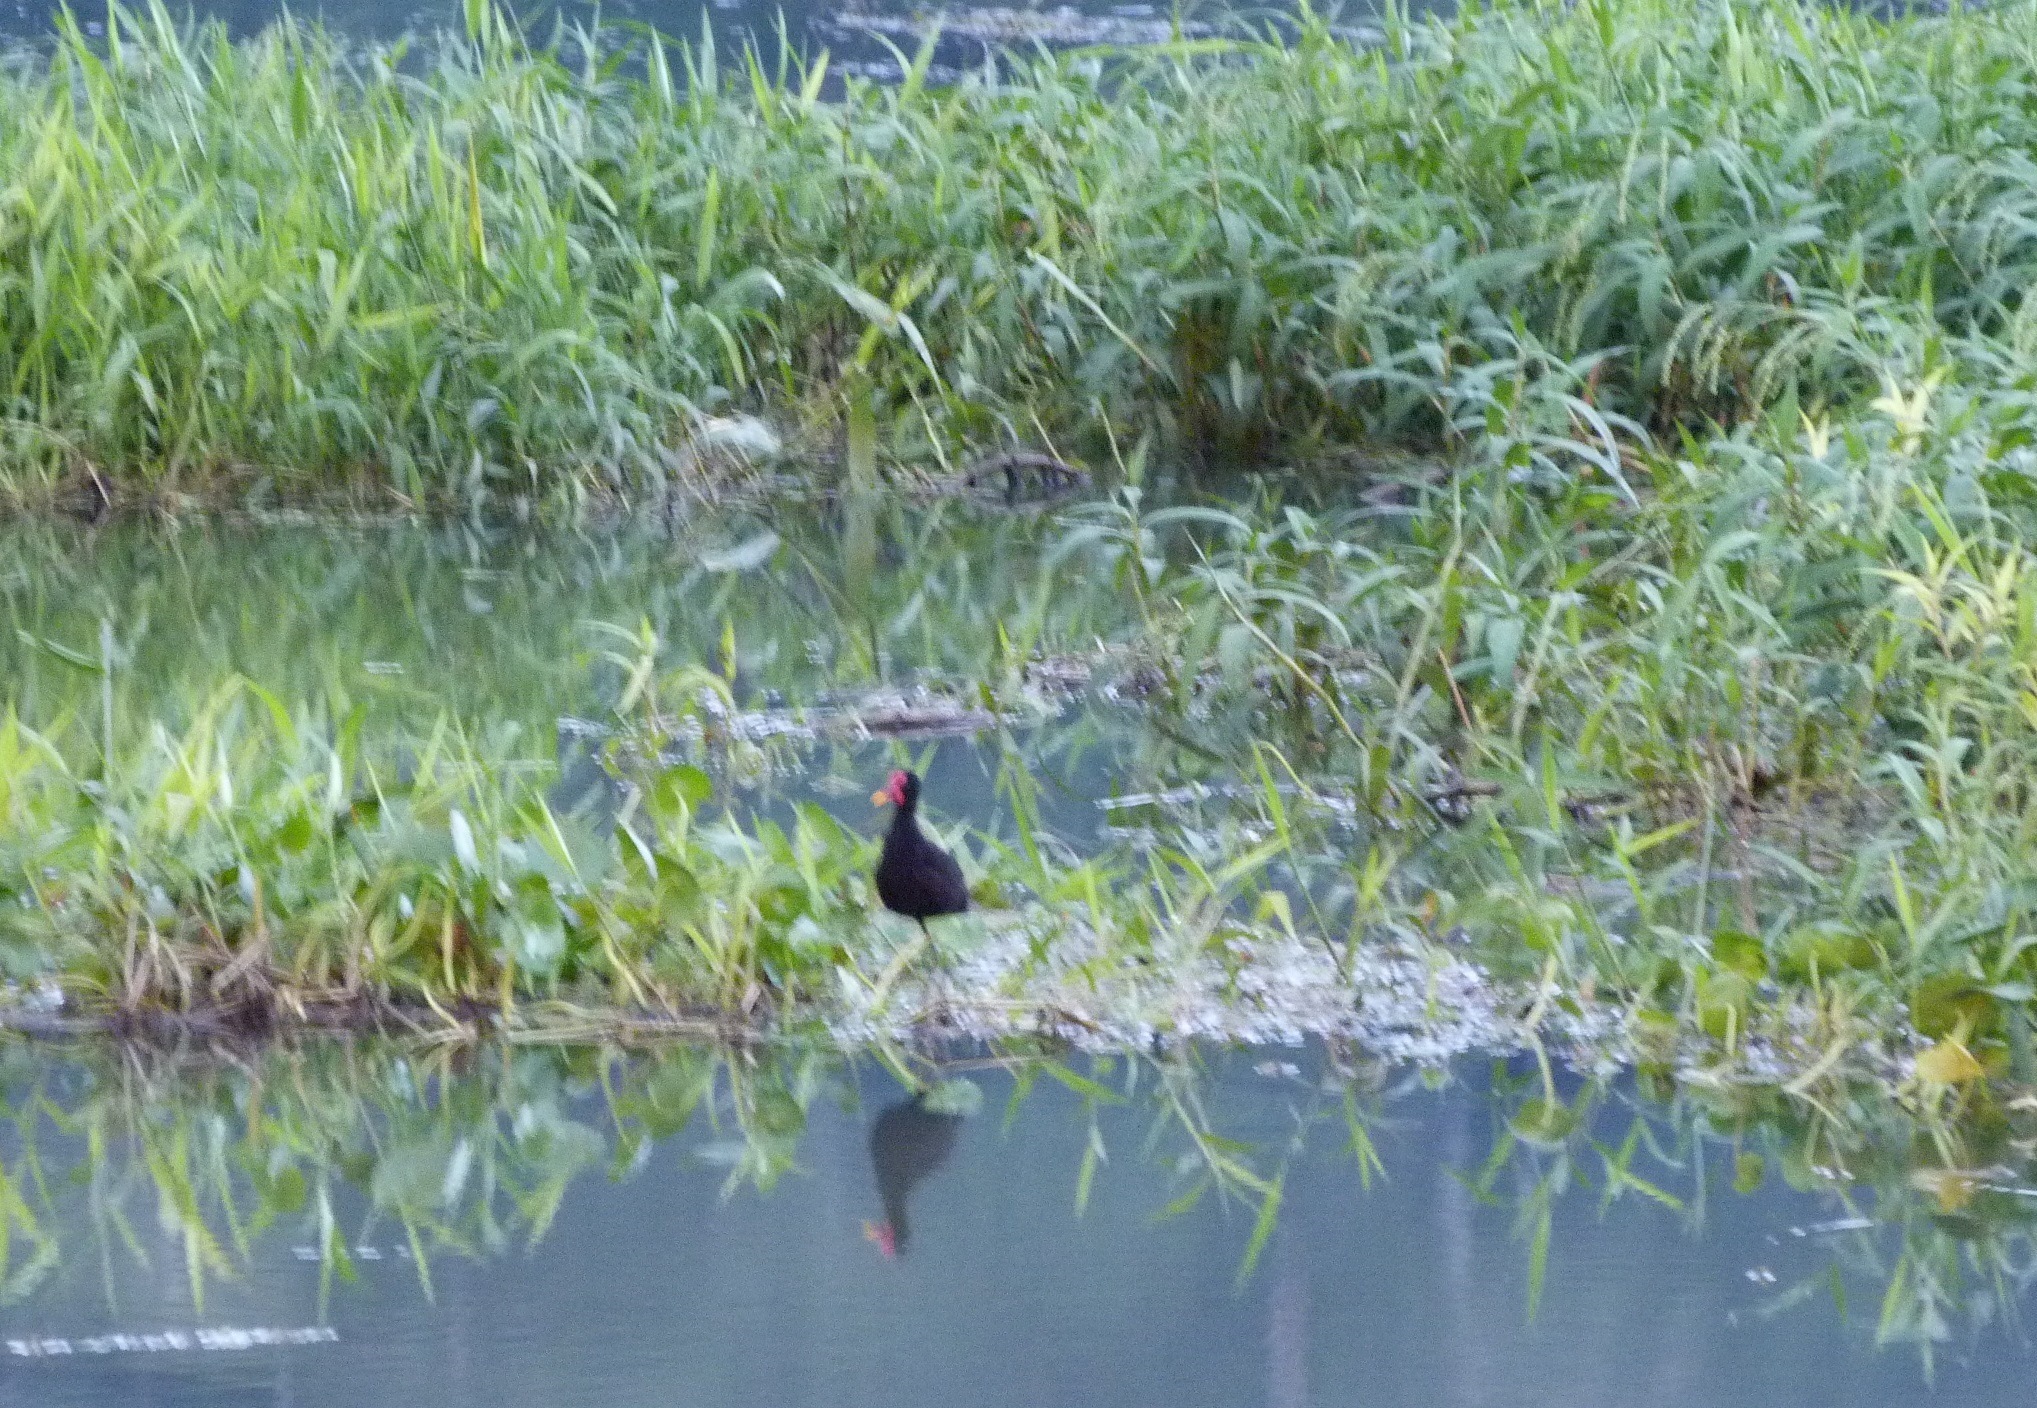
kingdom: Animalia
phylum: Chordata
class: Aves
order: Charadriiformes
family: Jacanidae
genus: Jacana
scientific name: Jacana jacana
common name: Wattled jacana
